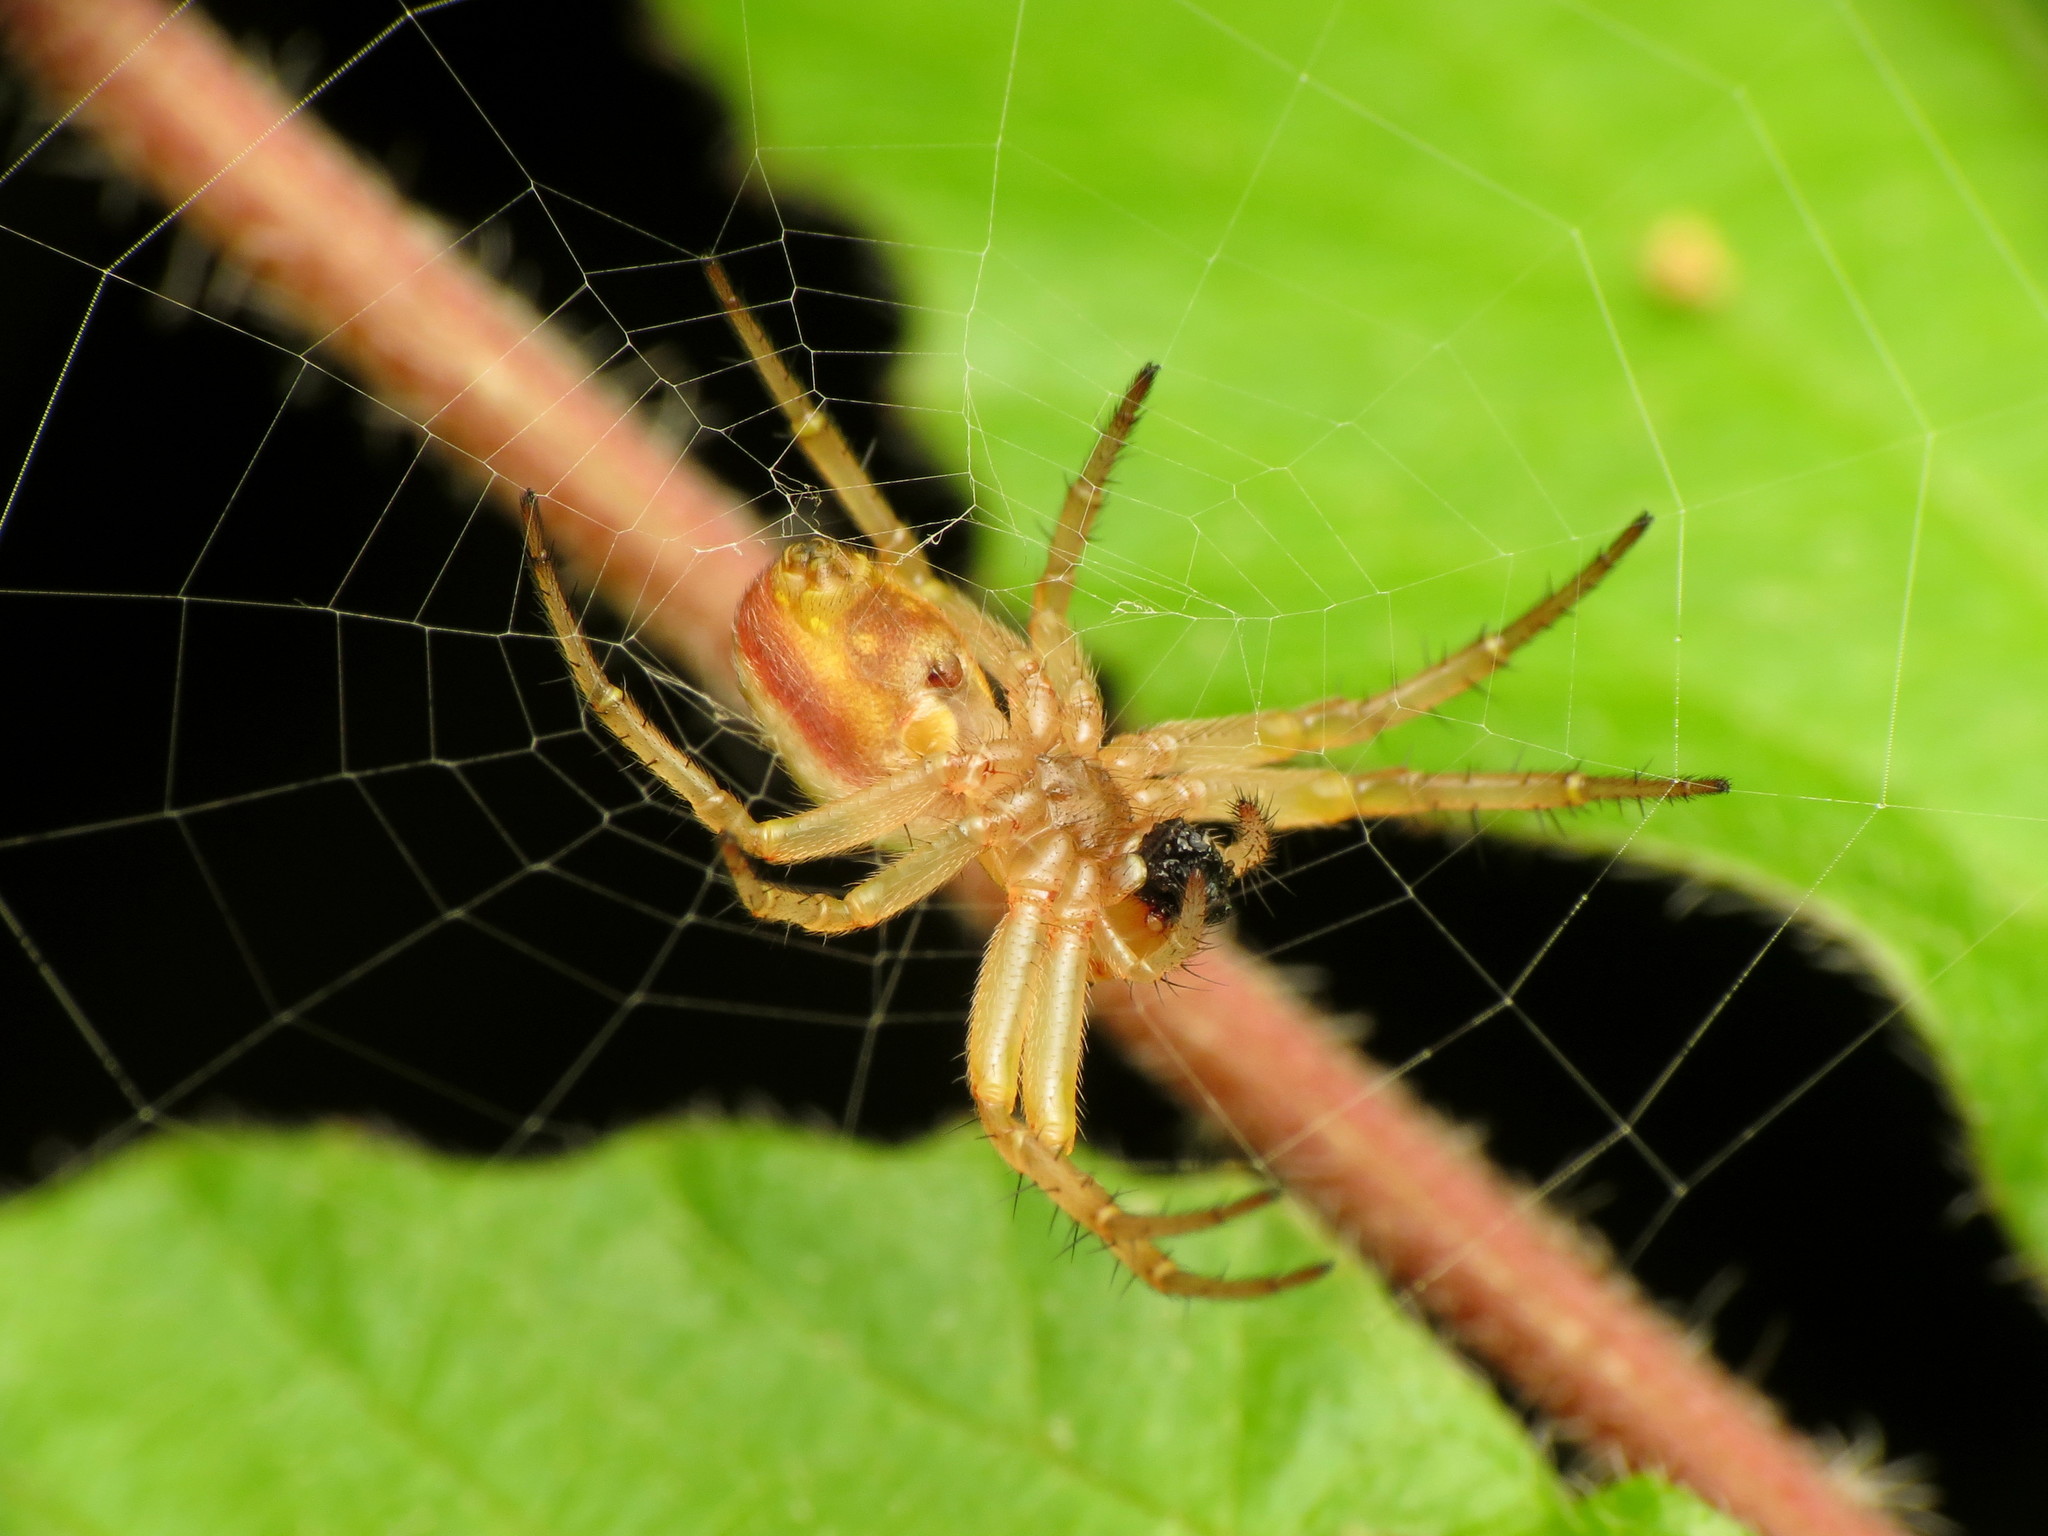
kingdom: Animalia
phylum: Arthropoda
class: Arachnida
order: Araneae
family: Araneidae
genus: Araniella
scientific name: Araniella displicata
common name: Sixspotted orb weaver
